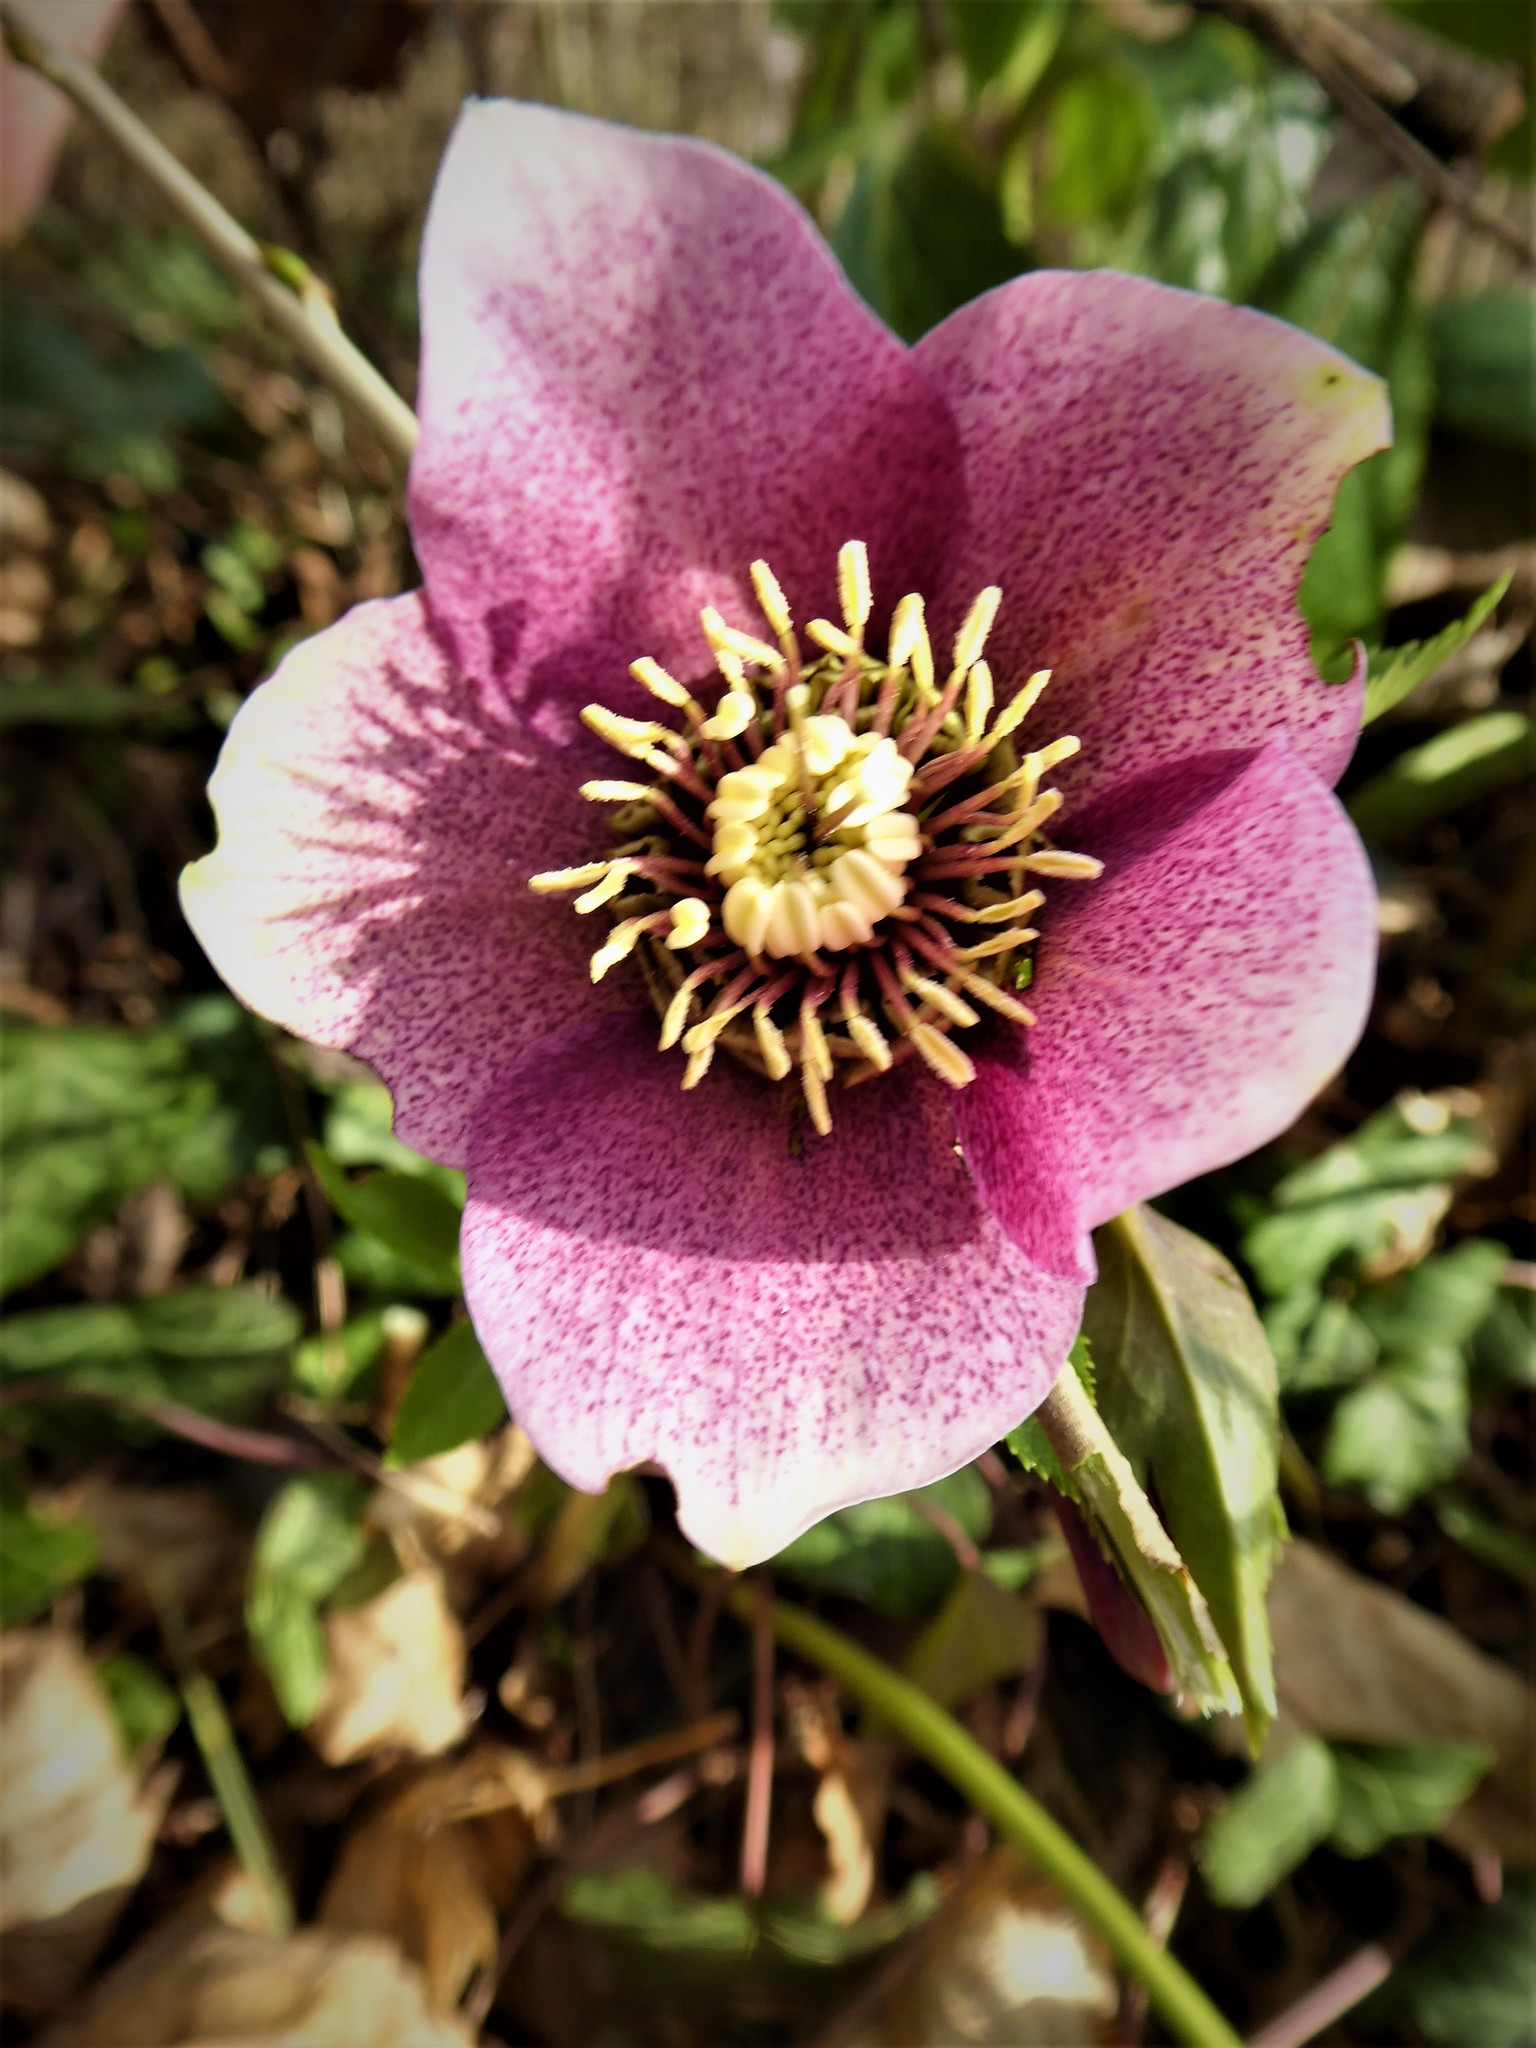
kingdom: Plantae
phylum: Tracheophyta
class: Magnoliopsida
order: Ranunculales
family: Ranunculaceae
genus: Helleborus
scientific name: Helleborus hybridus
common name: Hybrid lenten-rose
